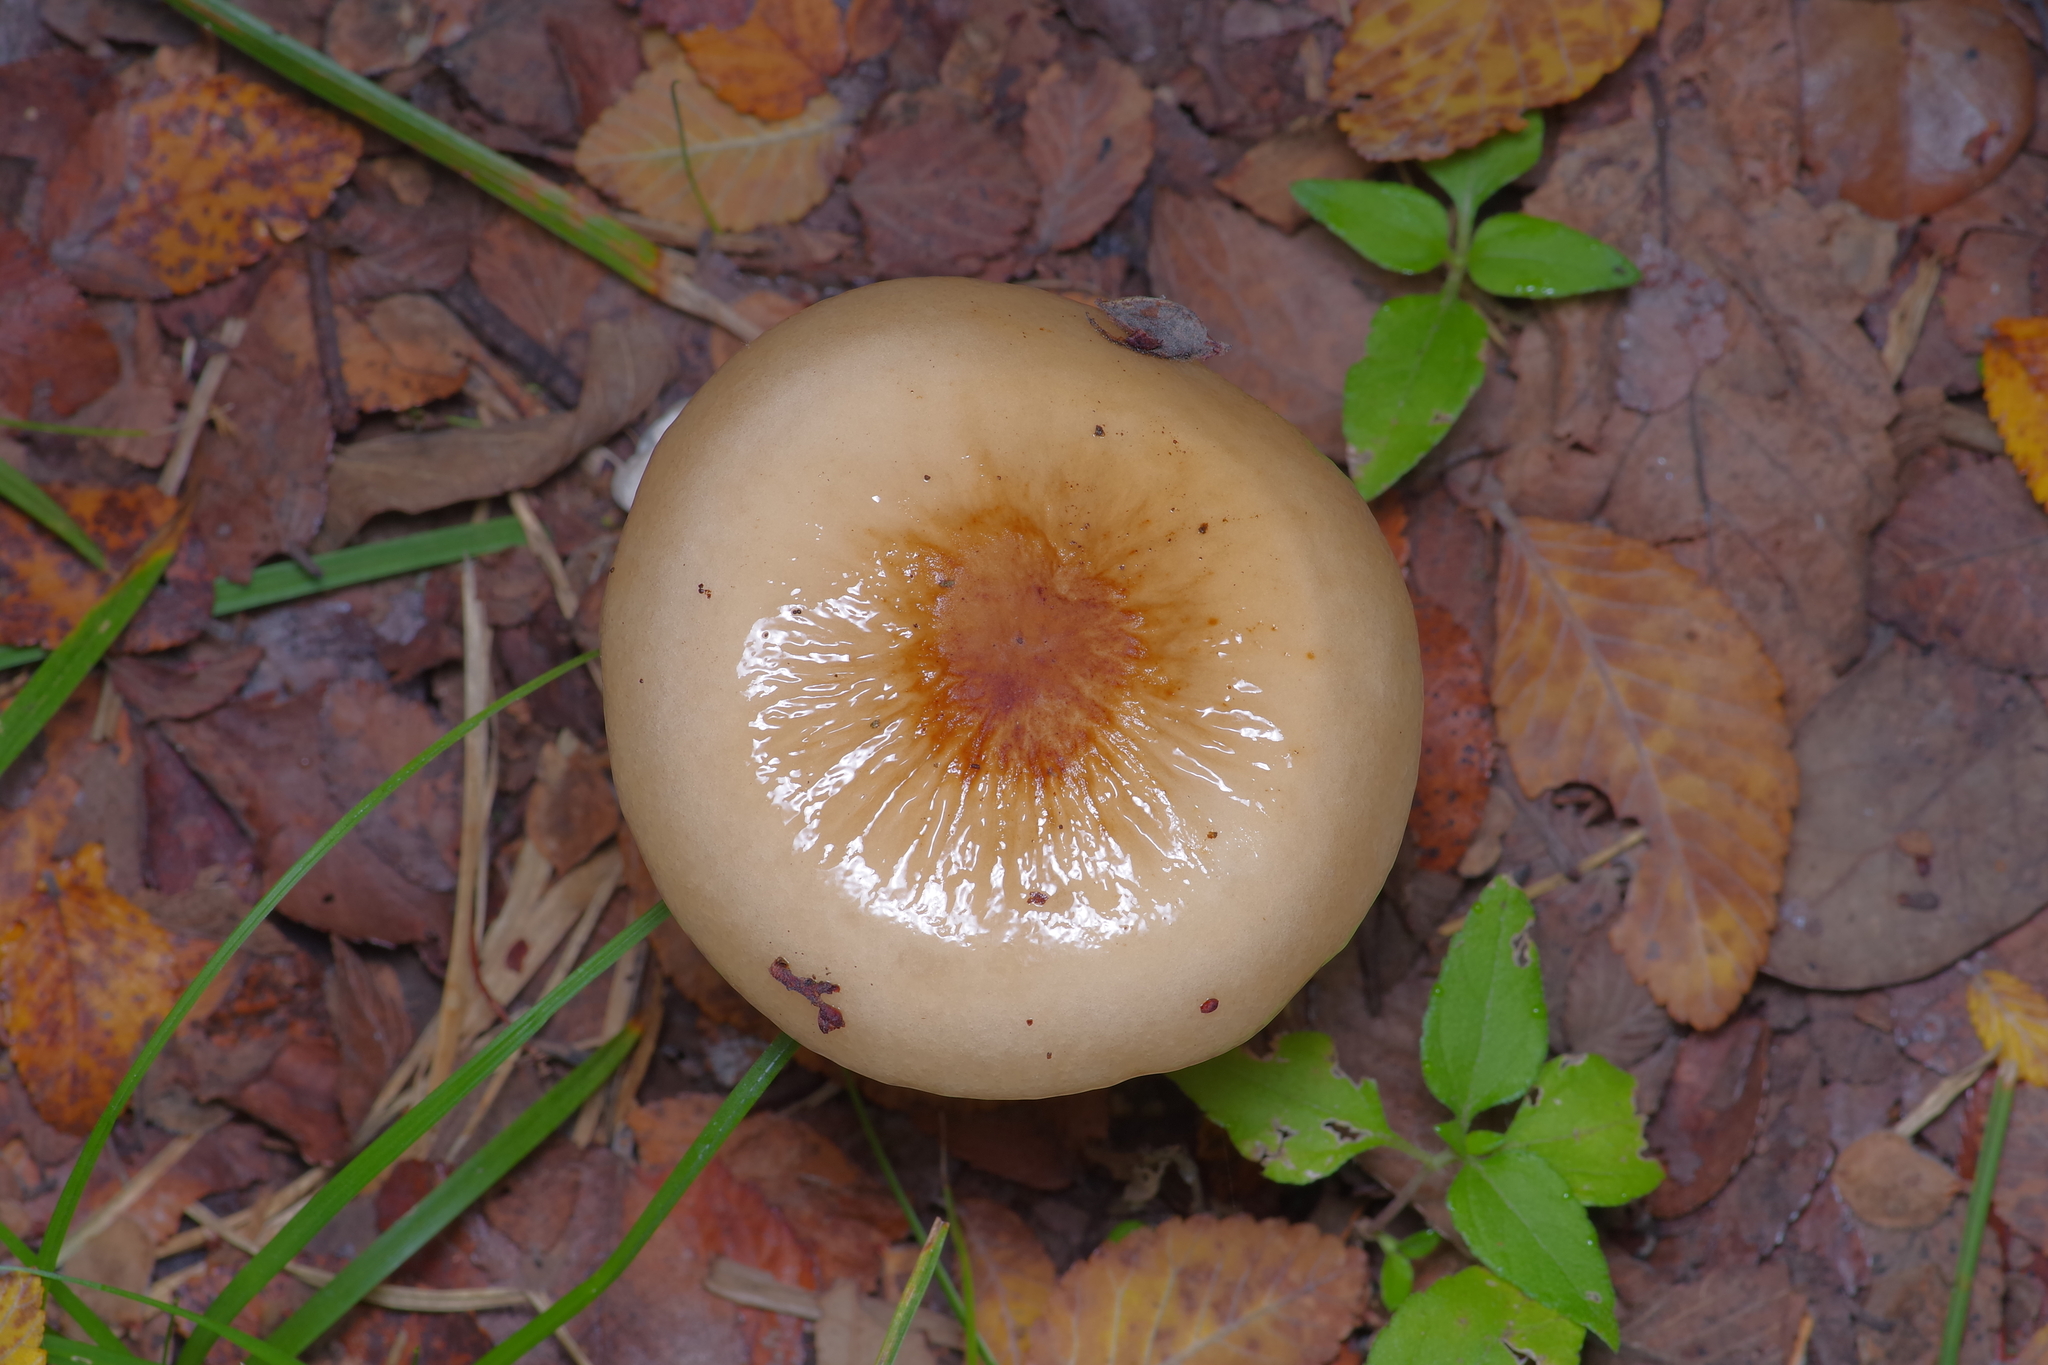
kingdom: Fungi
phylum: Basidiomycota
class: Agaricomycetes
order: Agaricales
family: Physalacriaceae
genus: Hymenopellis
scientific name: Hymenopellis furfuracea
